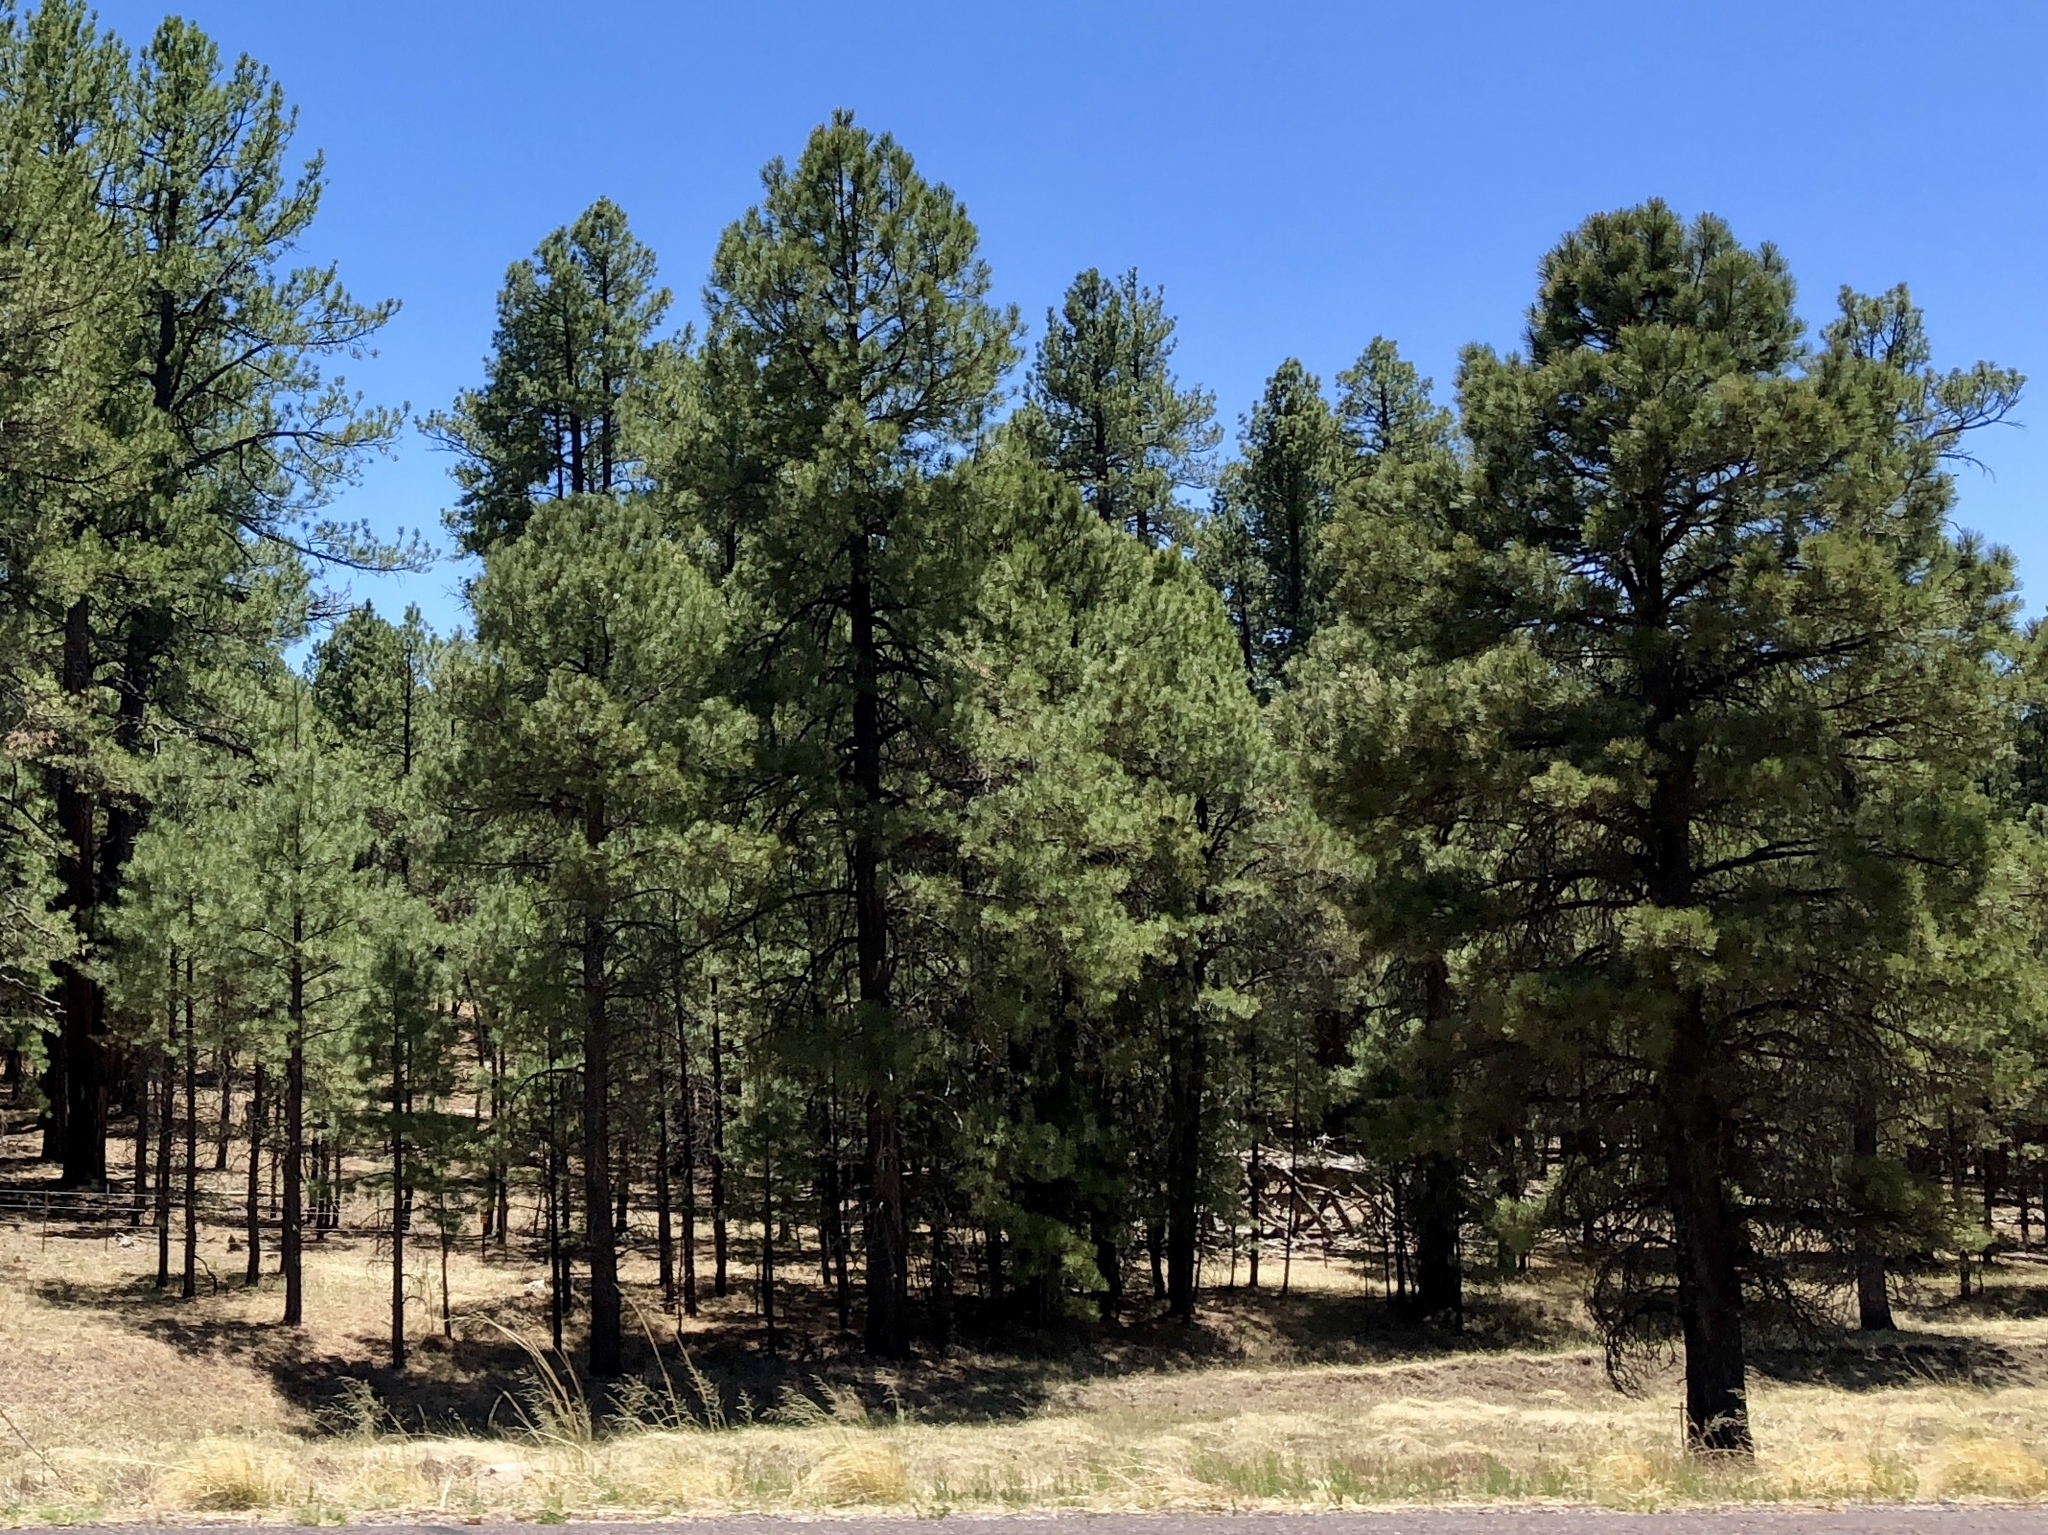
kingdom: Plantae
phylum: Tracheophyta
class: Pinopsida
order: Pinales
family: Pinaceae
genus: Pinus
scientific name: Pinus ponderosa
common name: Western yellow-pine
